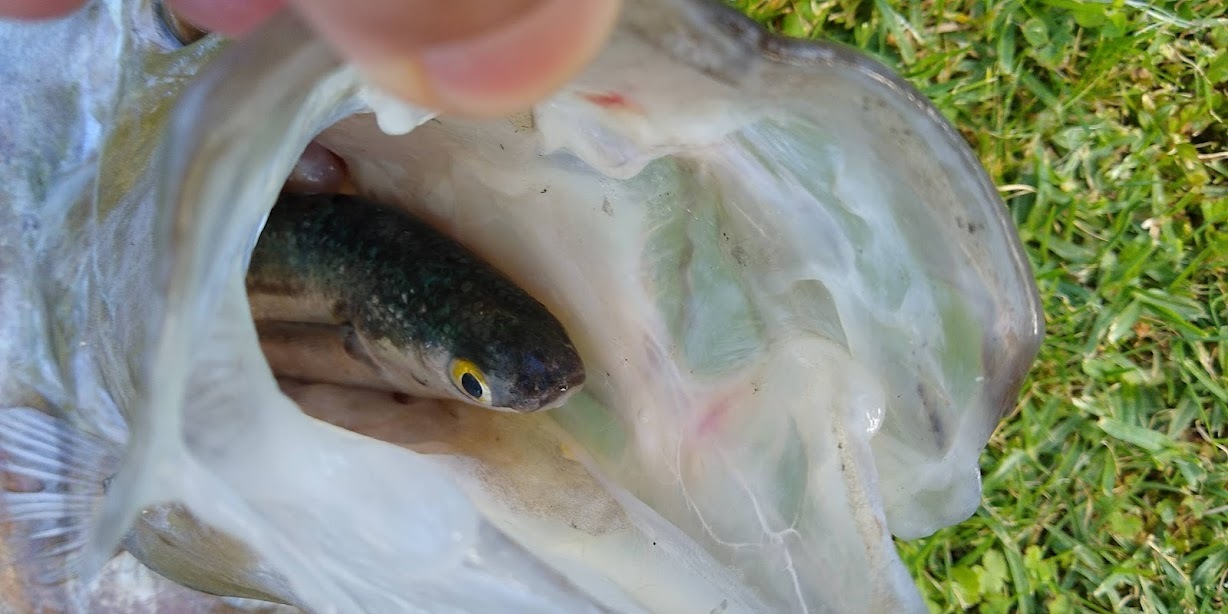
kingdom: Animalia
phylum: Chordata
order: Zeiformes
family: Zeidae
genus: Zeus
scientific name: Zeus faber
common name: John dory
